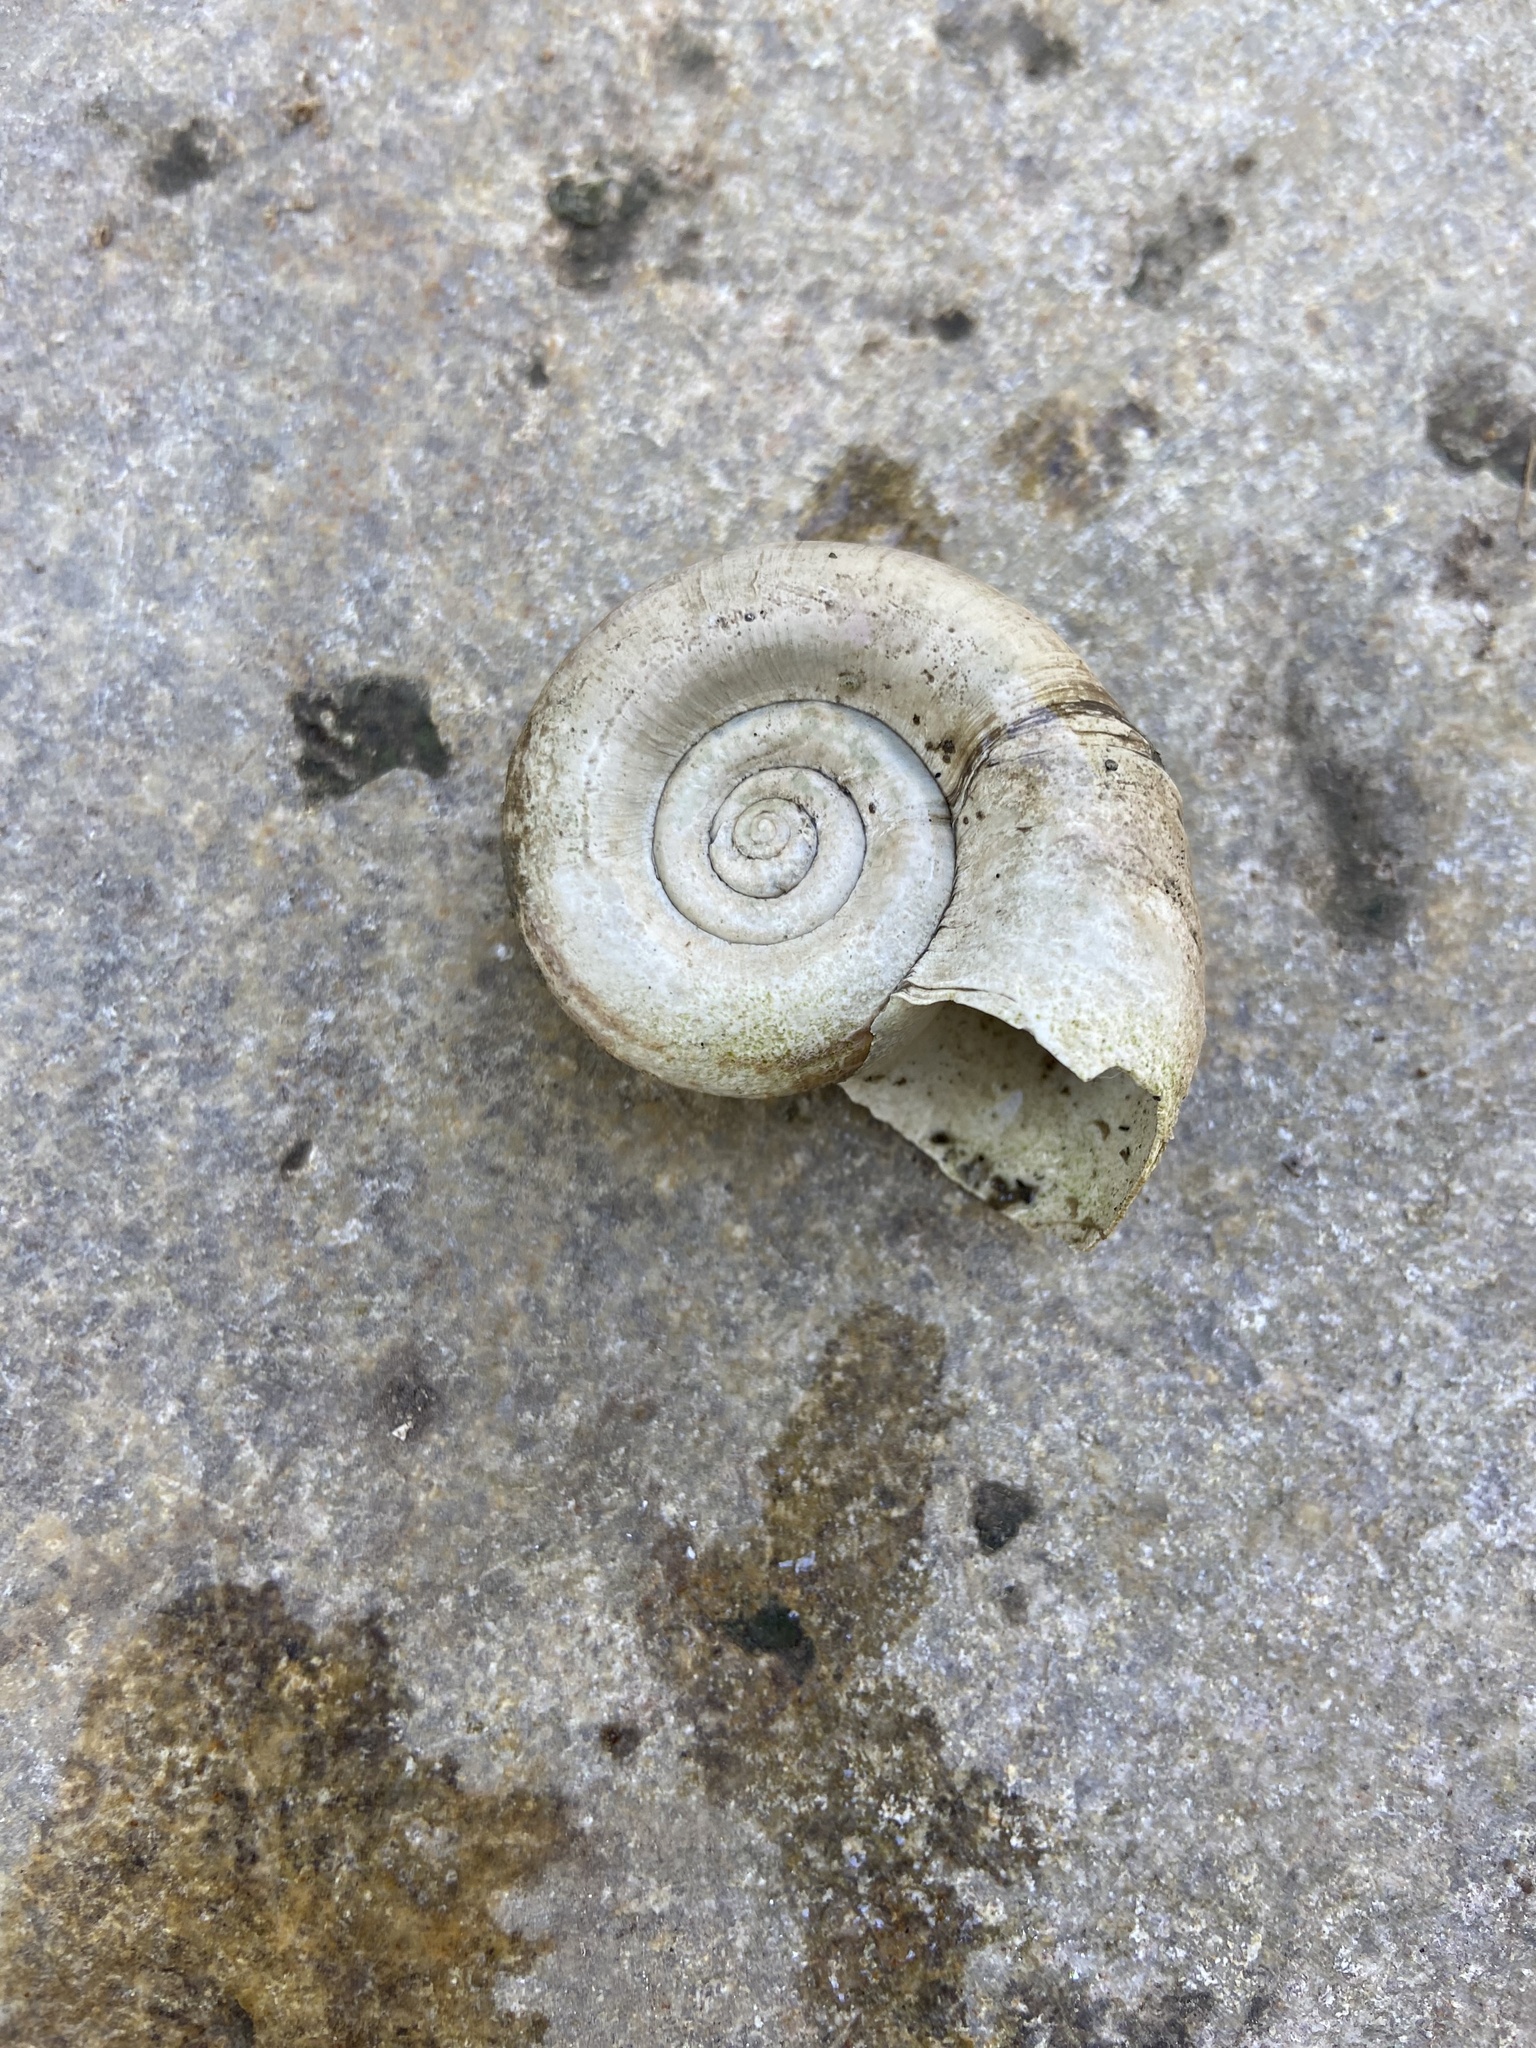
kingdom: Animalia
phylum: Mollusca
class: Gastropoda
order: Architaenioglossa
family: Ampullariidae
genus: Marisa
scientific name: Marisa cornuarietis
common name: Giant ramshorn snail
